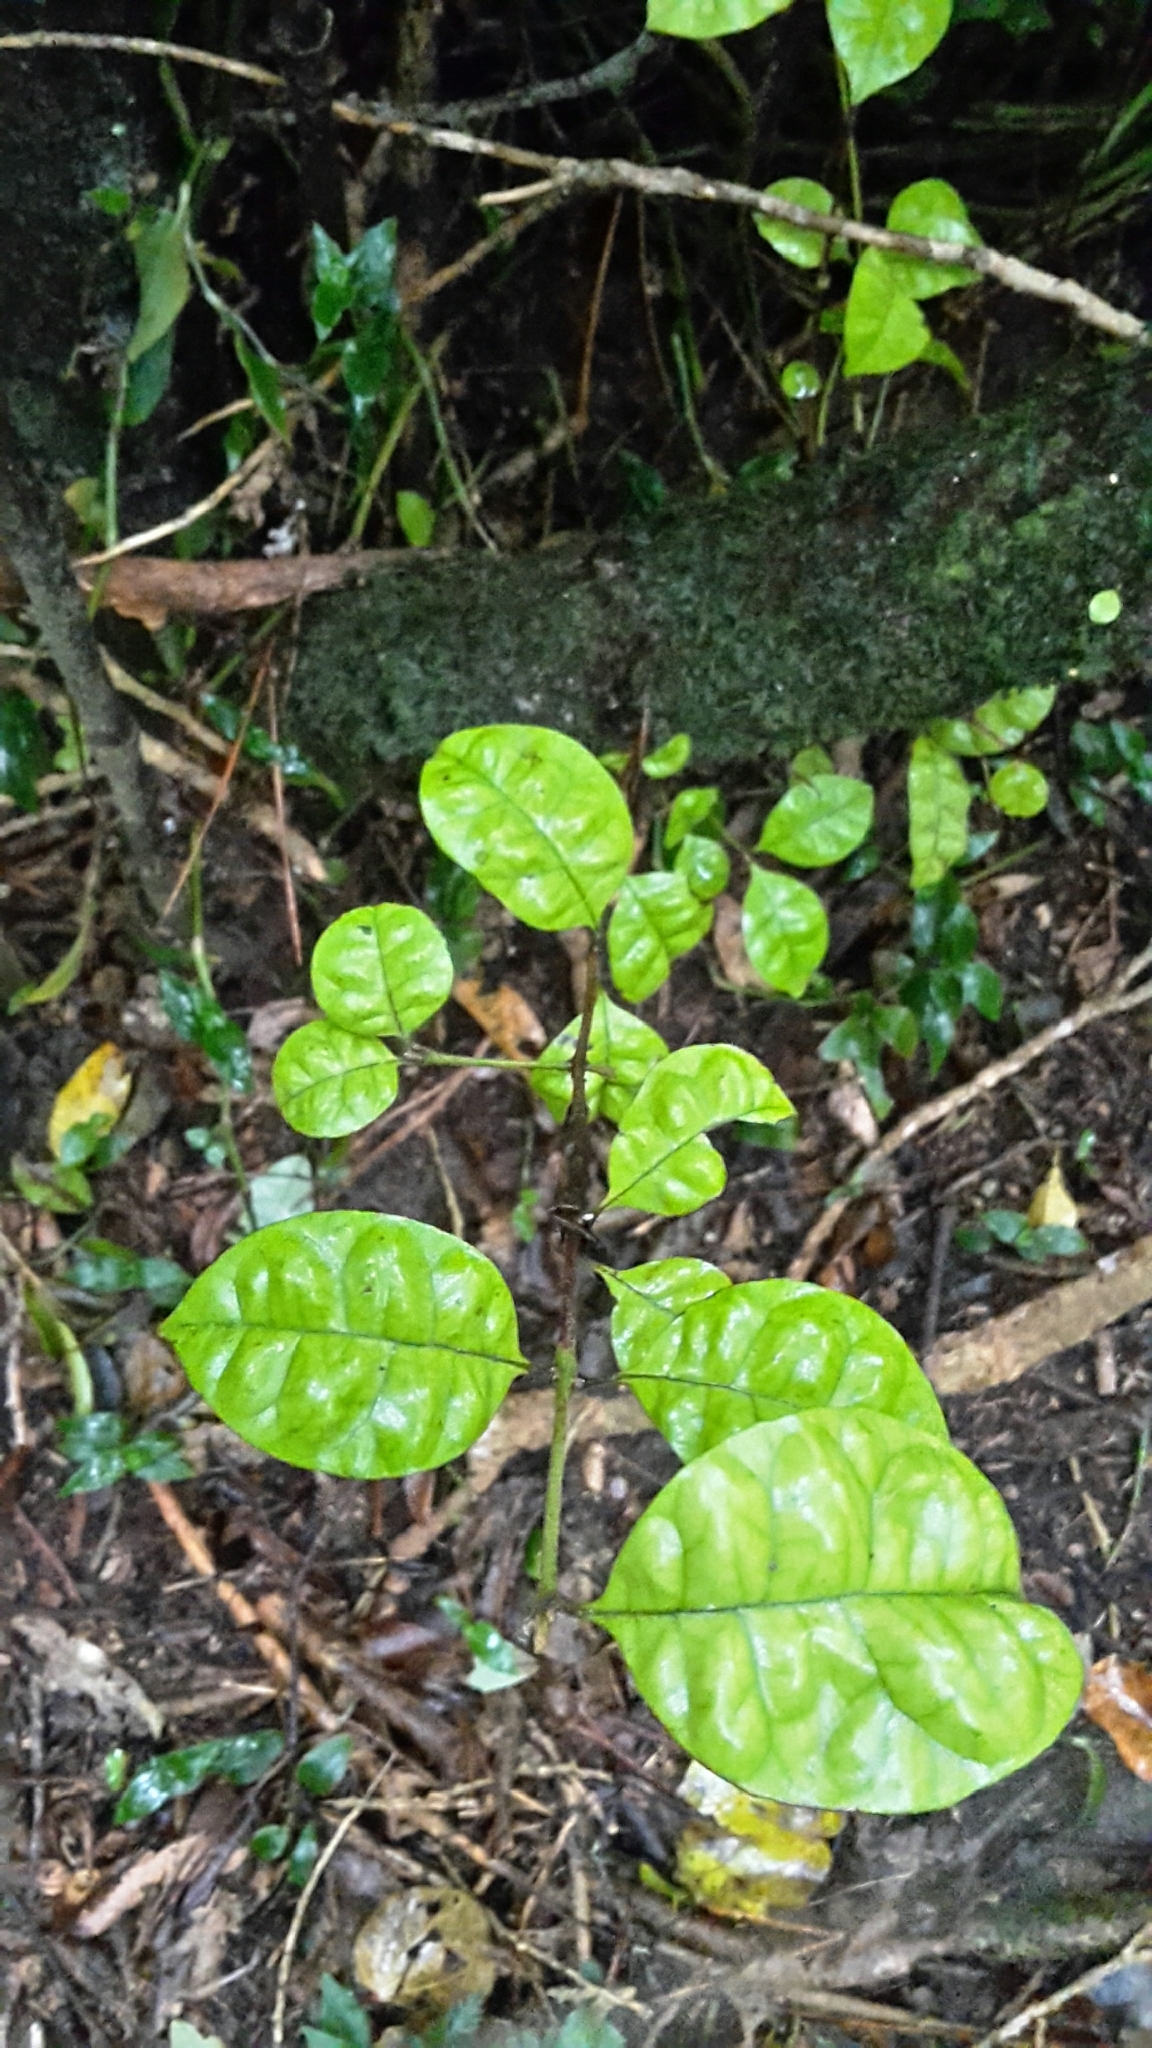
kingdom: Plantae
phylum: Tracheophyta
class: Magnoliopsida
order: Myrtales
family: Myrtaceae
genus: Lophomyrtus
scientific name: Lophomyrtus bullata
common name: Rama rama
